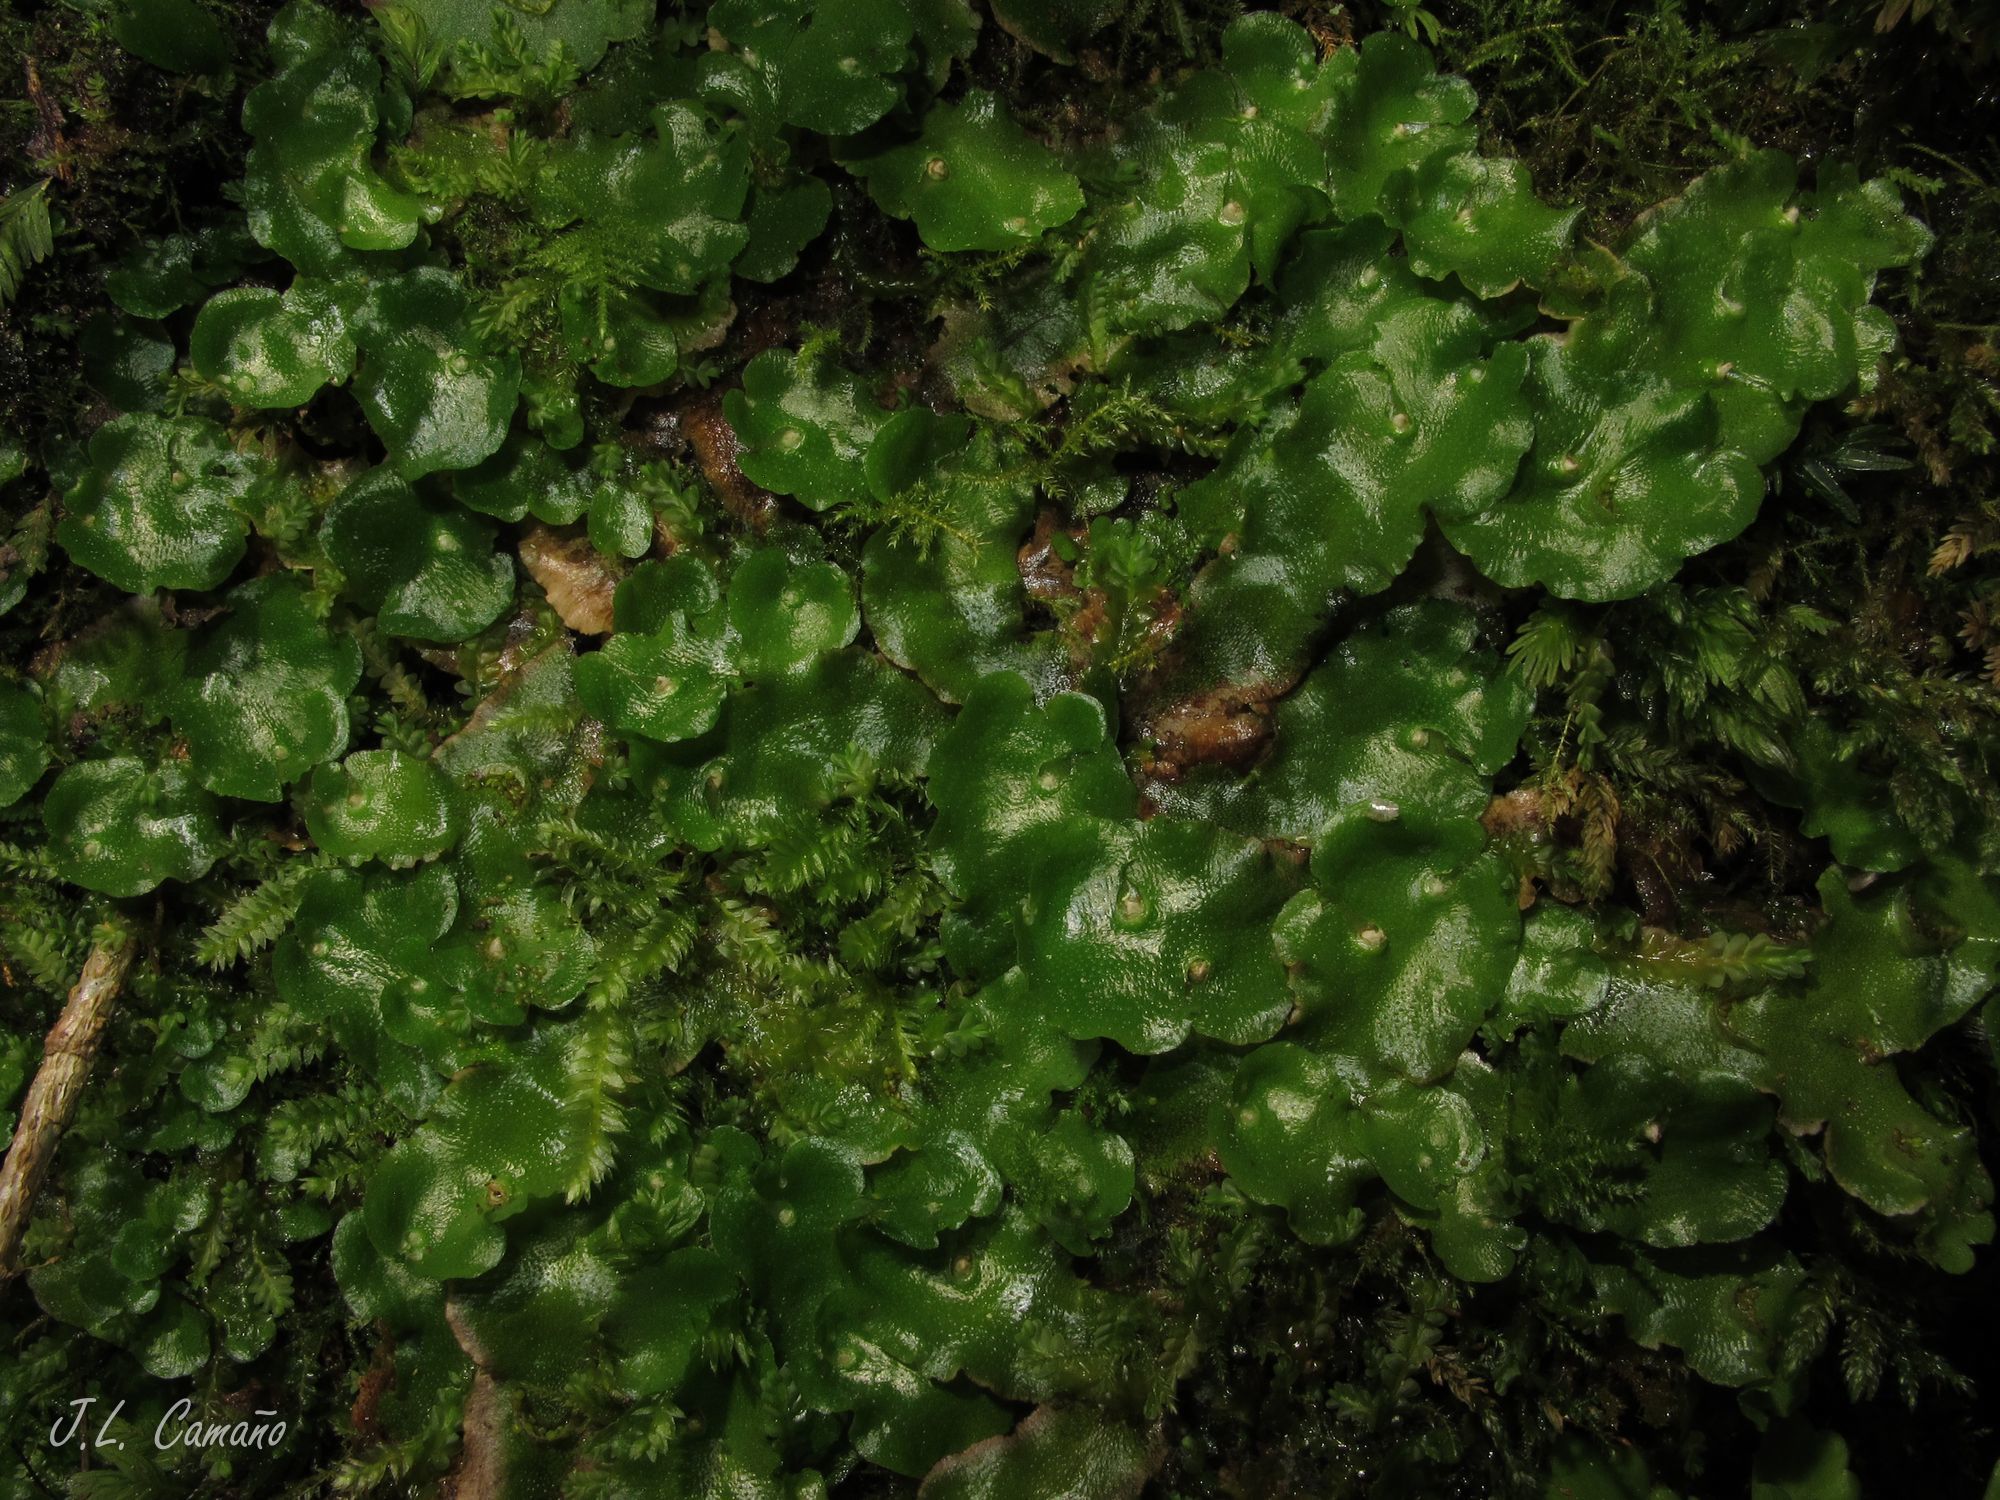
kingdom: Plantae
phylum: Marchantiophyta
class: Marchantiopsida
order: Lunulariales
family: Lunulariaceae
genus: Lunularia
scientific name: Lunularia cruciata
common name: Crescent-cup liverwort
